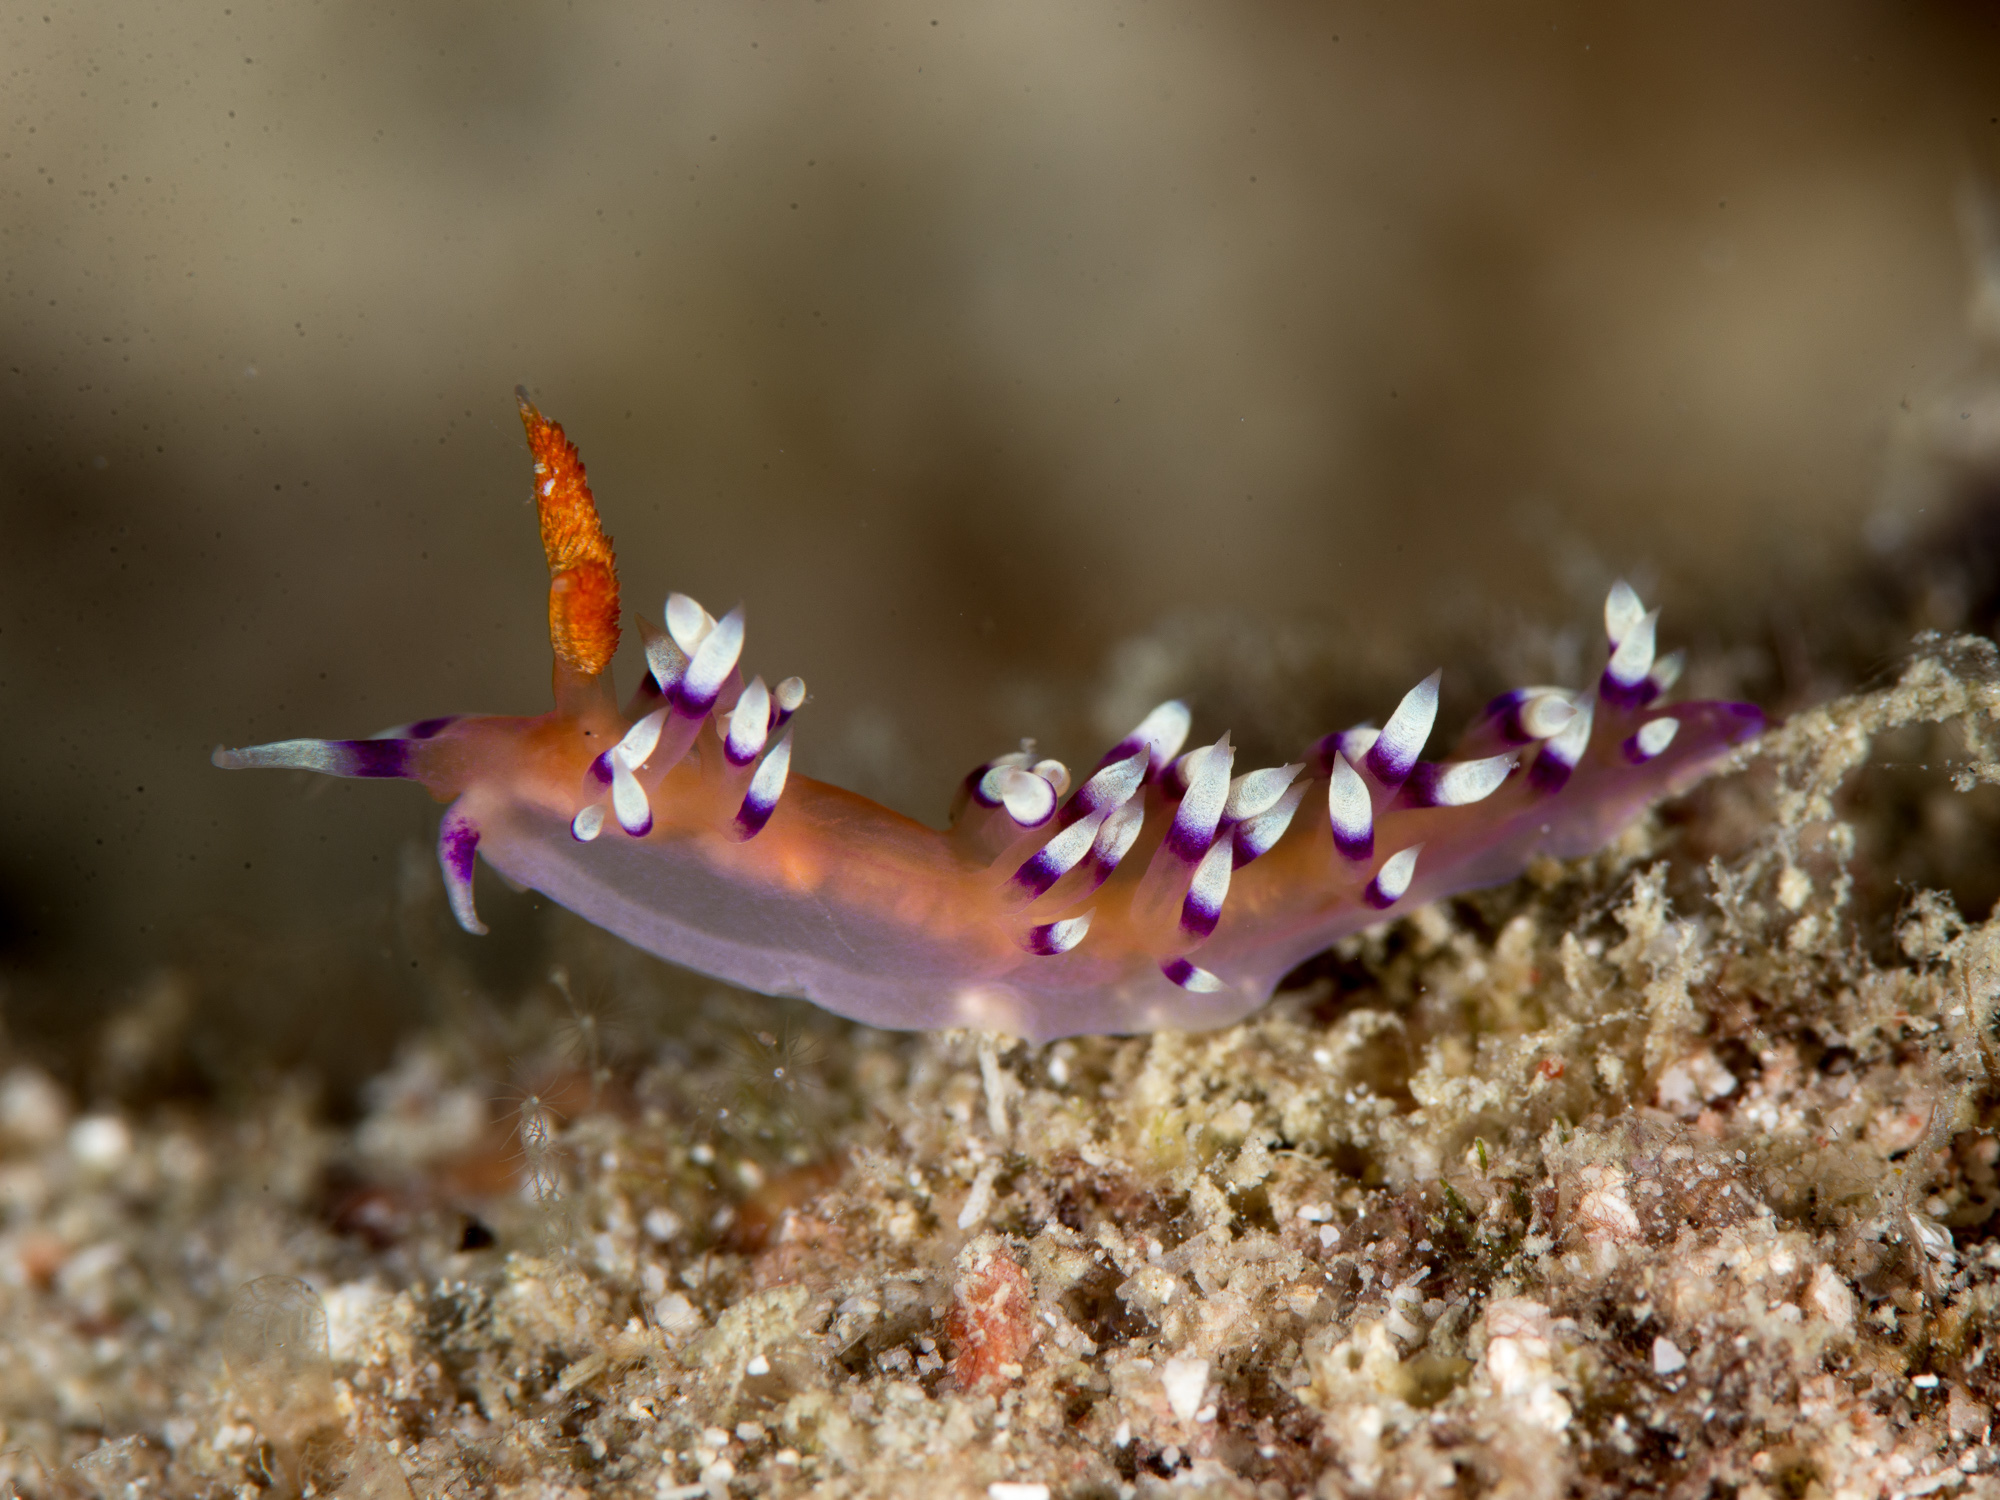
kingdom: Animalia
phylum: Mollusca
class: Gastropoda
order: Nudibranchia
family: Flabellinidae
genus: Coryphellina
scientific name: Coryphellina exoptata
